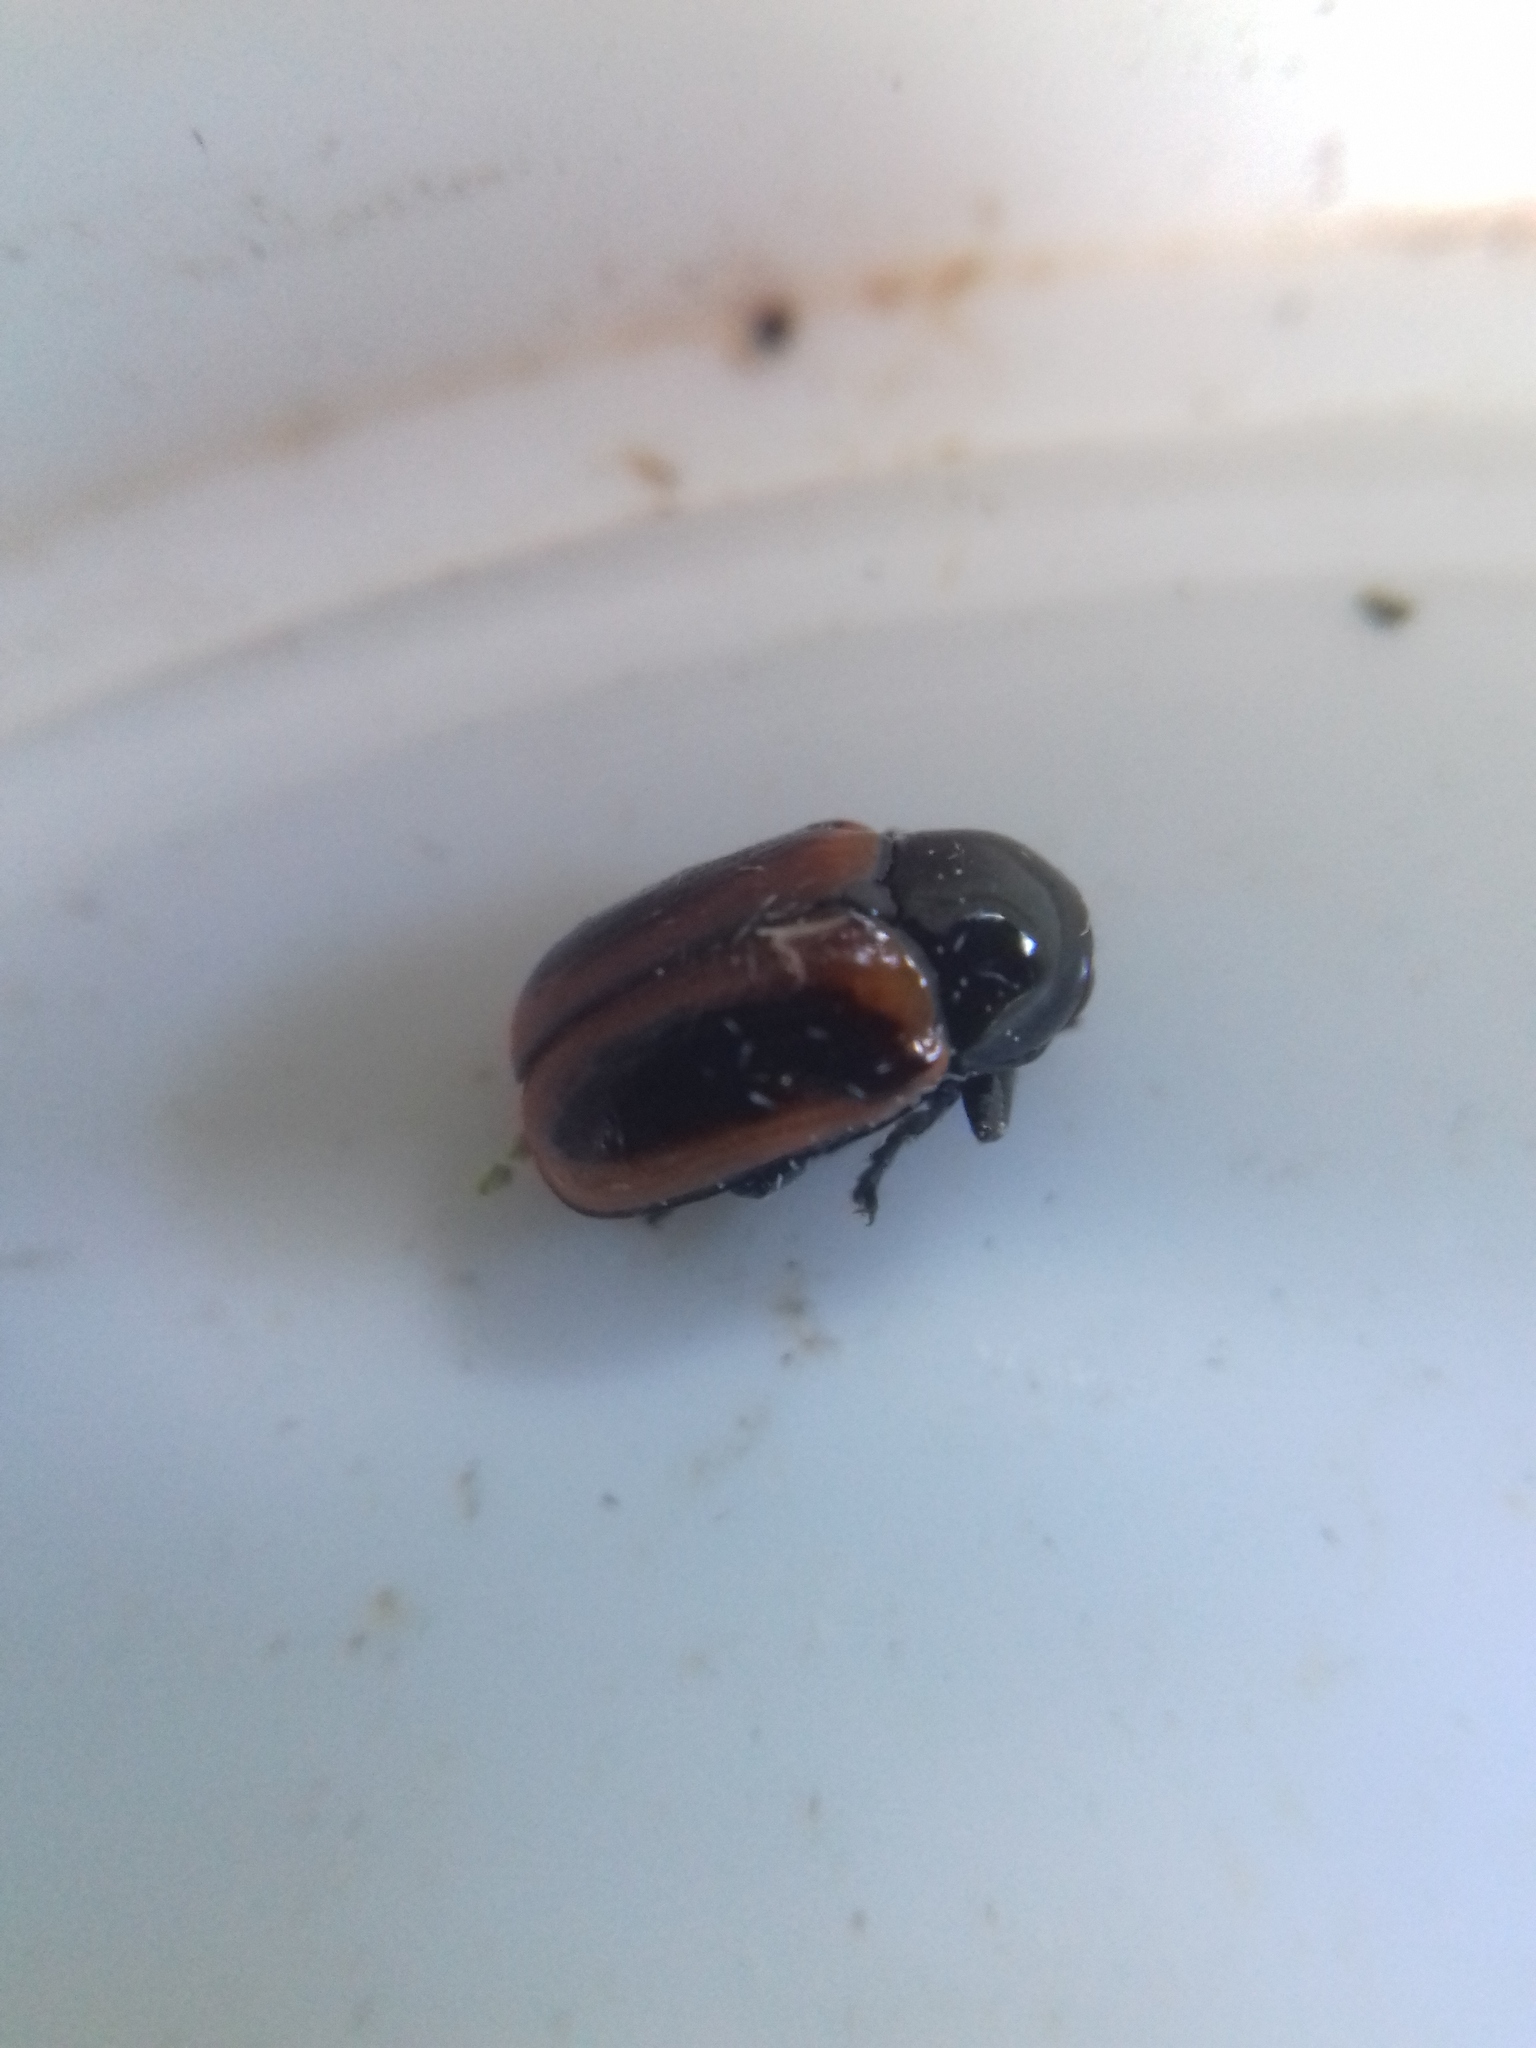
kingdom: Animalia
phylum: Arthropoda
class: Insecta
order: Coleoptera
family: Chrysomelidae
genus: Chiridopsis
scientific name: Chiridopsis bipunctata
